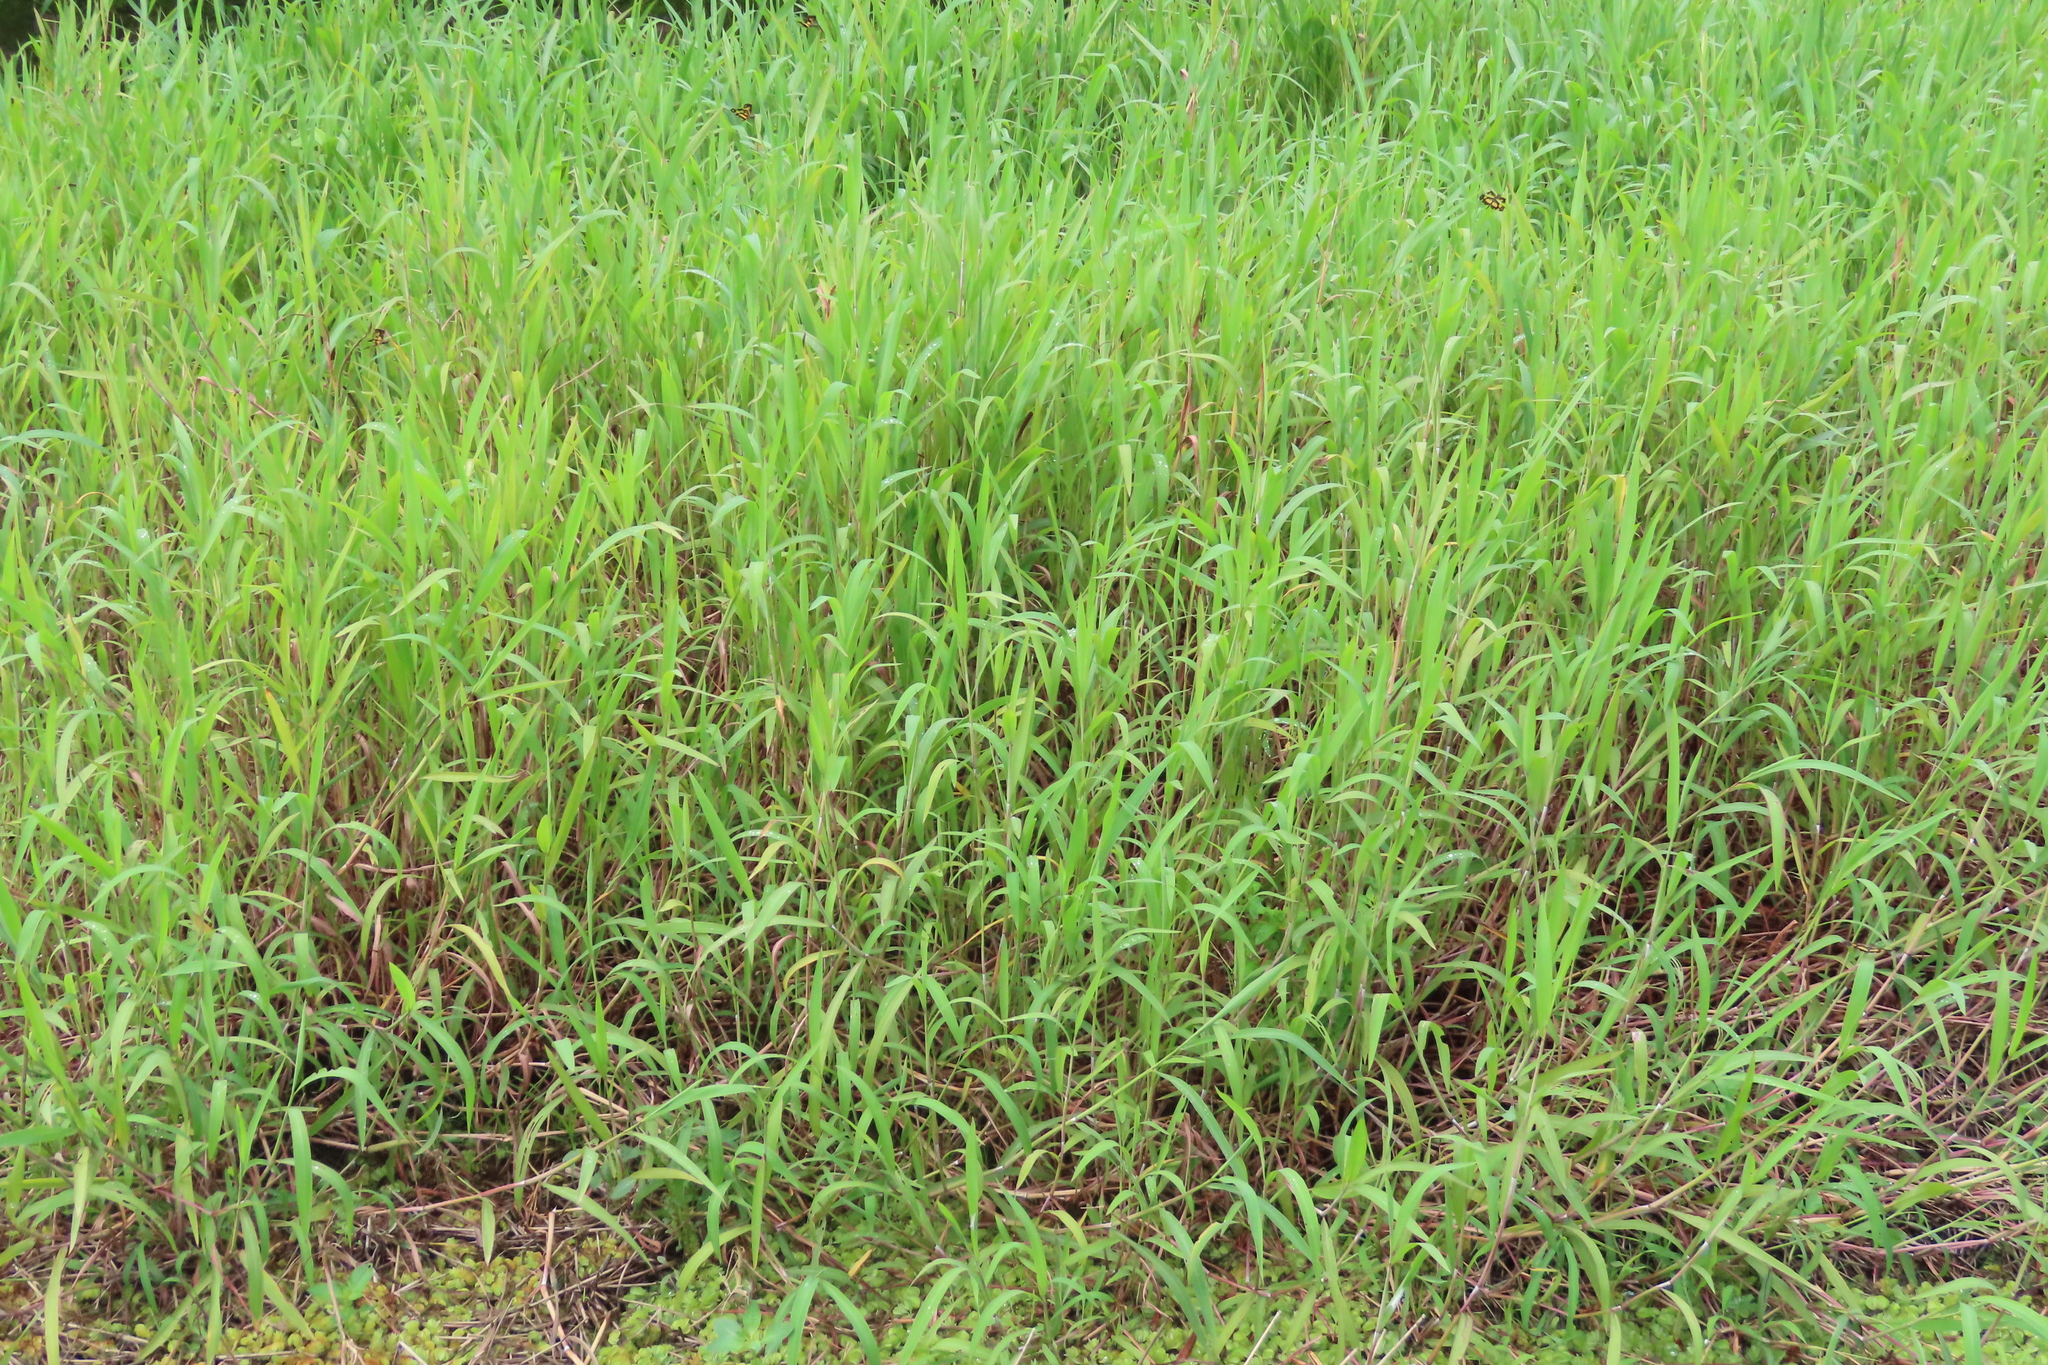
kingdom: Animalia
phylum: Arthropoda
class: Insecta
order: Odonata
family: Libellulidae
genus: Rhyothemis
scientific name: Rhyothemis variegata
